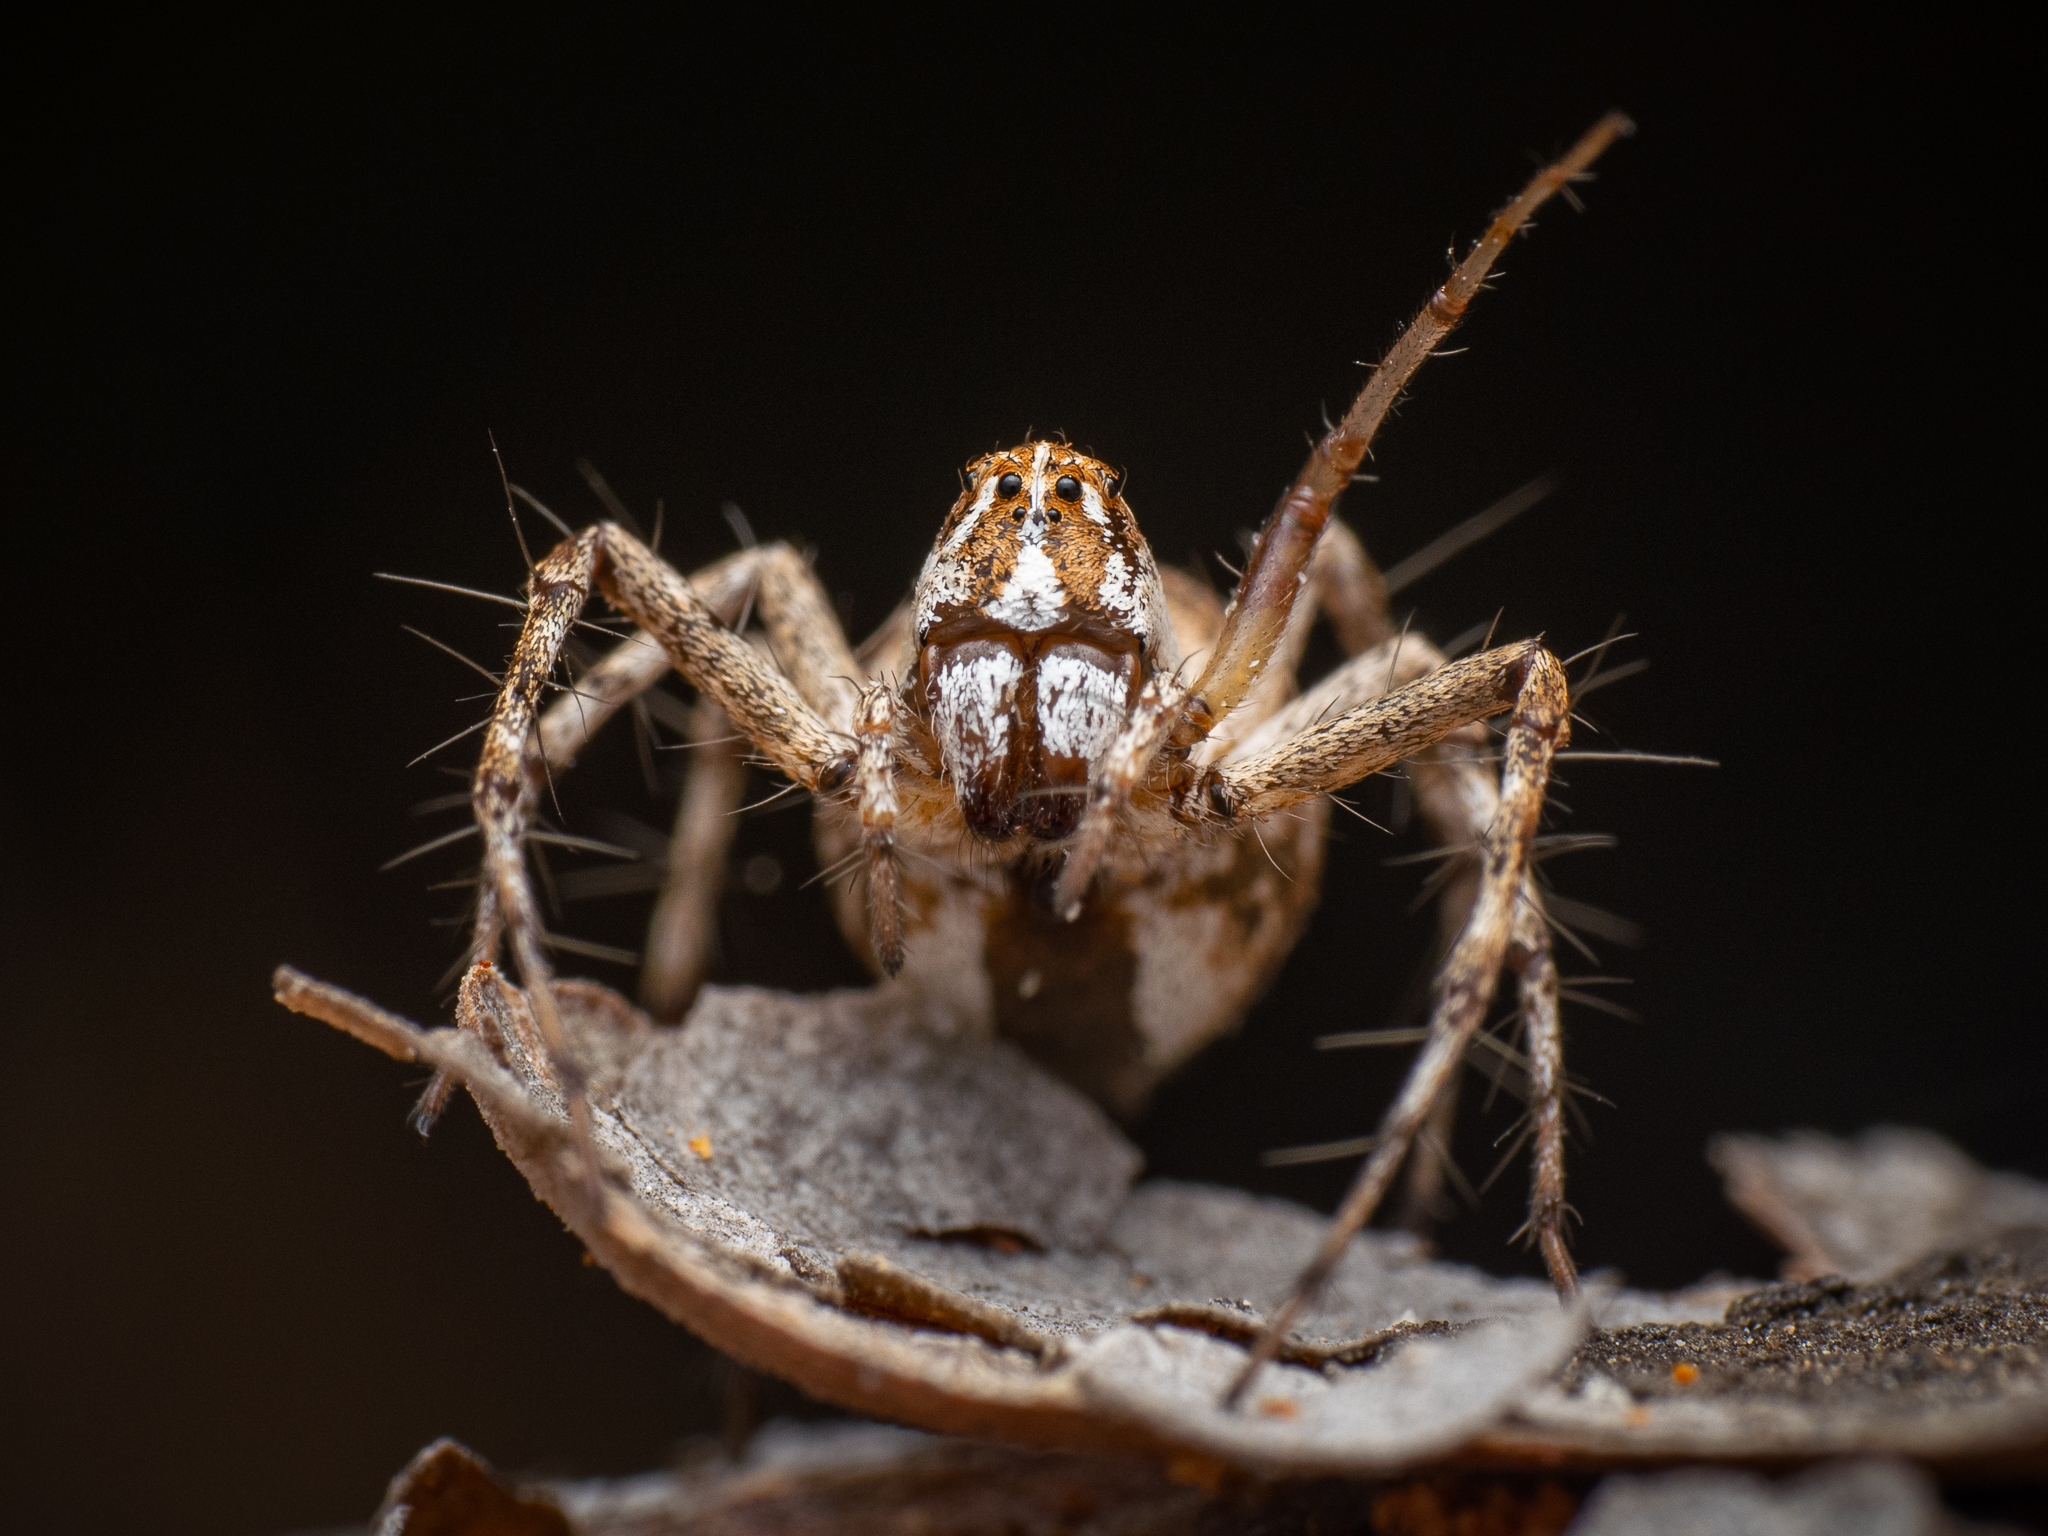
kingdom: Animalia
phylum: Arthropoda
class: Arachnida
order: Araneae
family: Oxyopidae
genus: Oxyopes
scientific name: Oxyopes heterophthalmus
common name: Lynx spider
